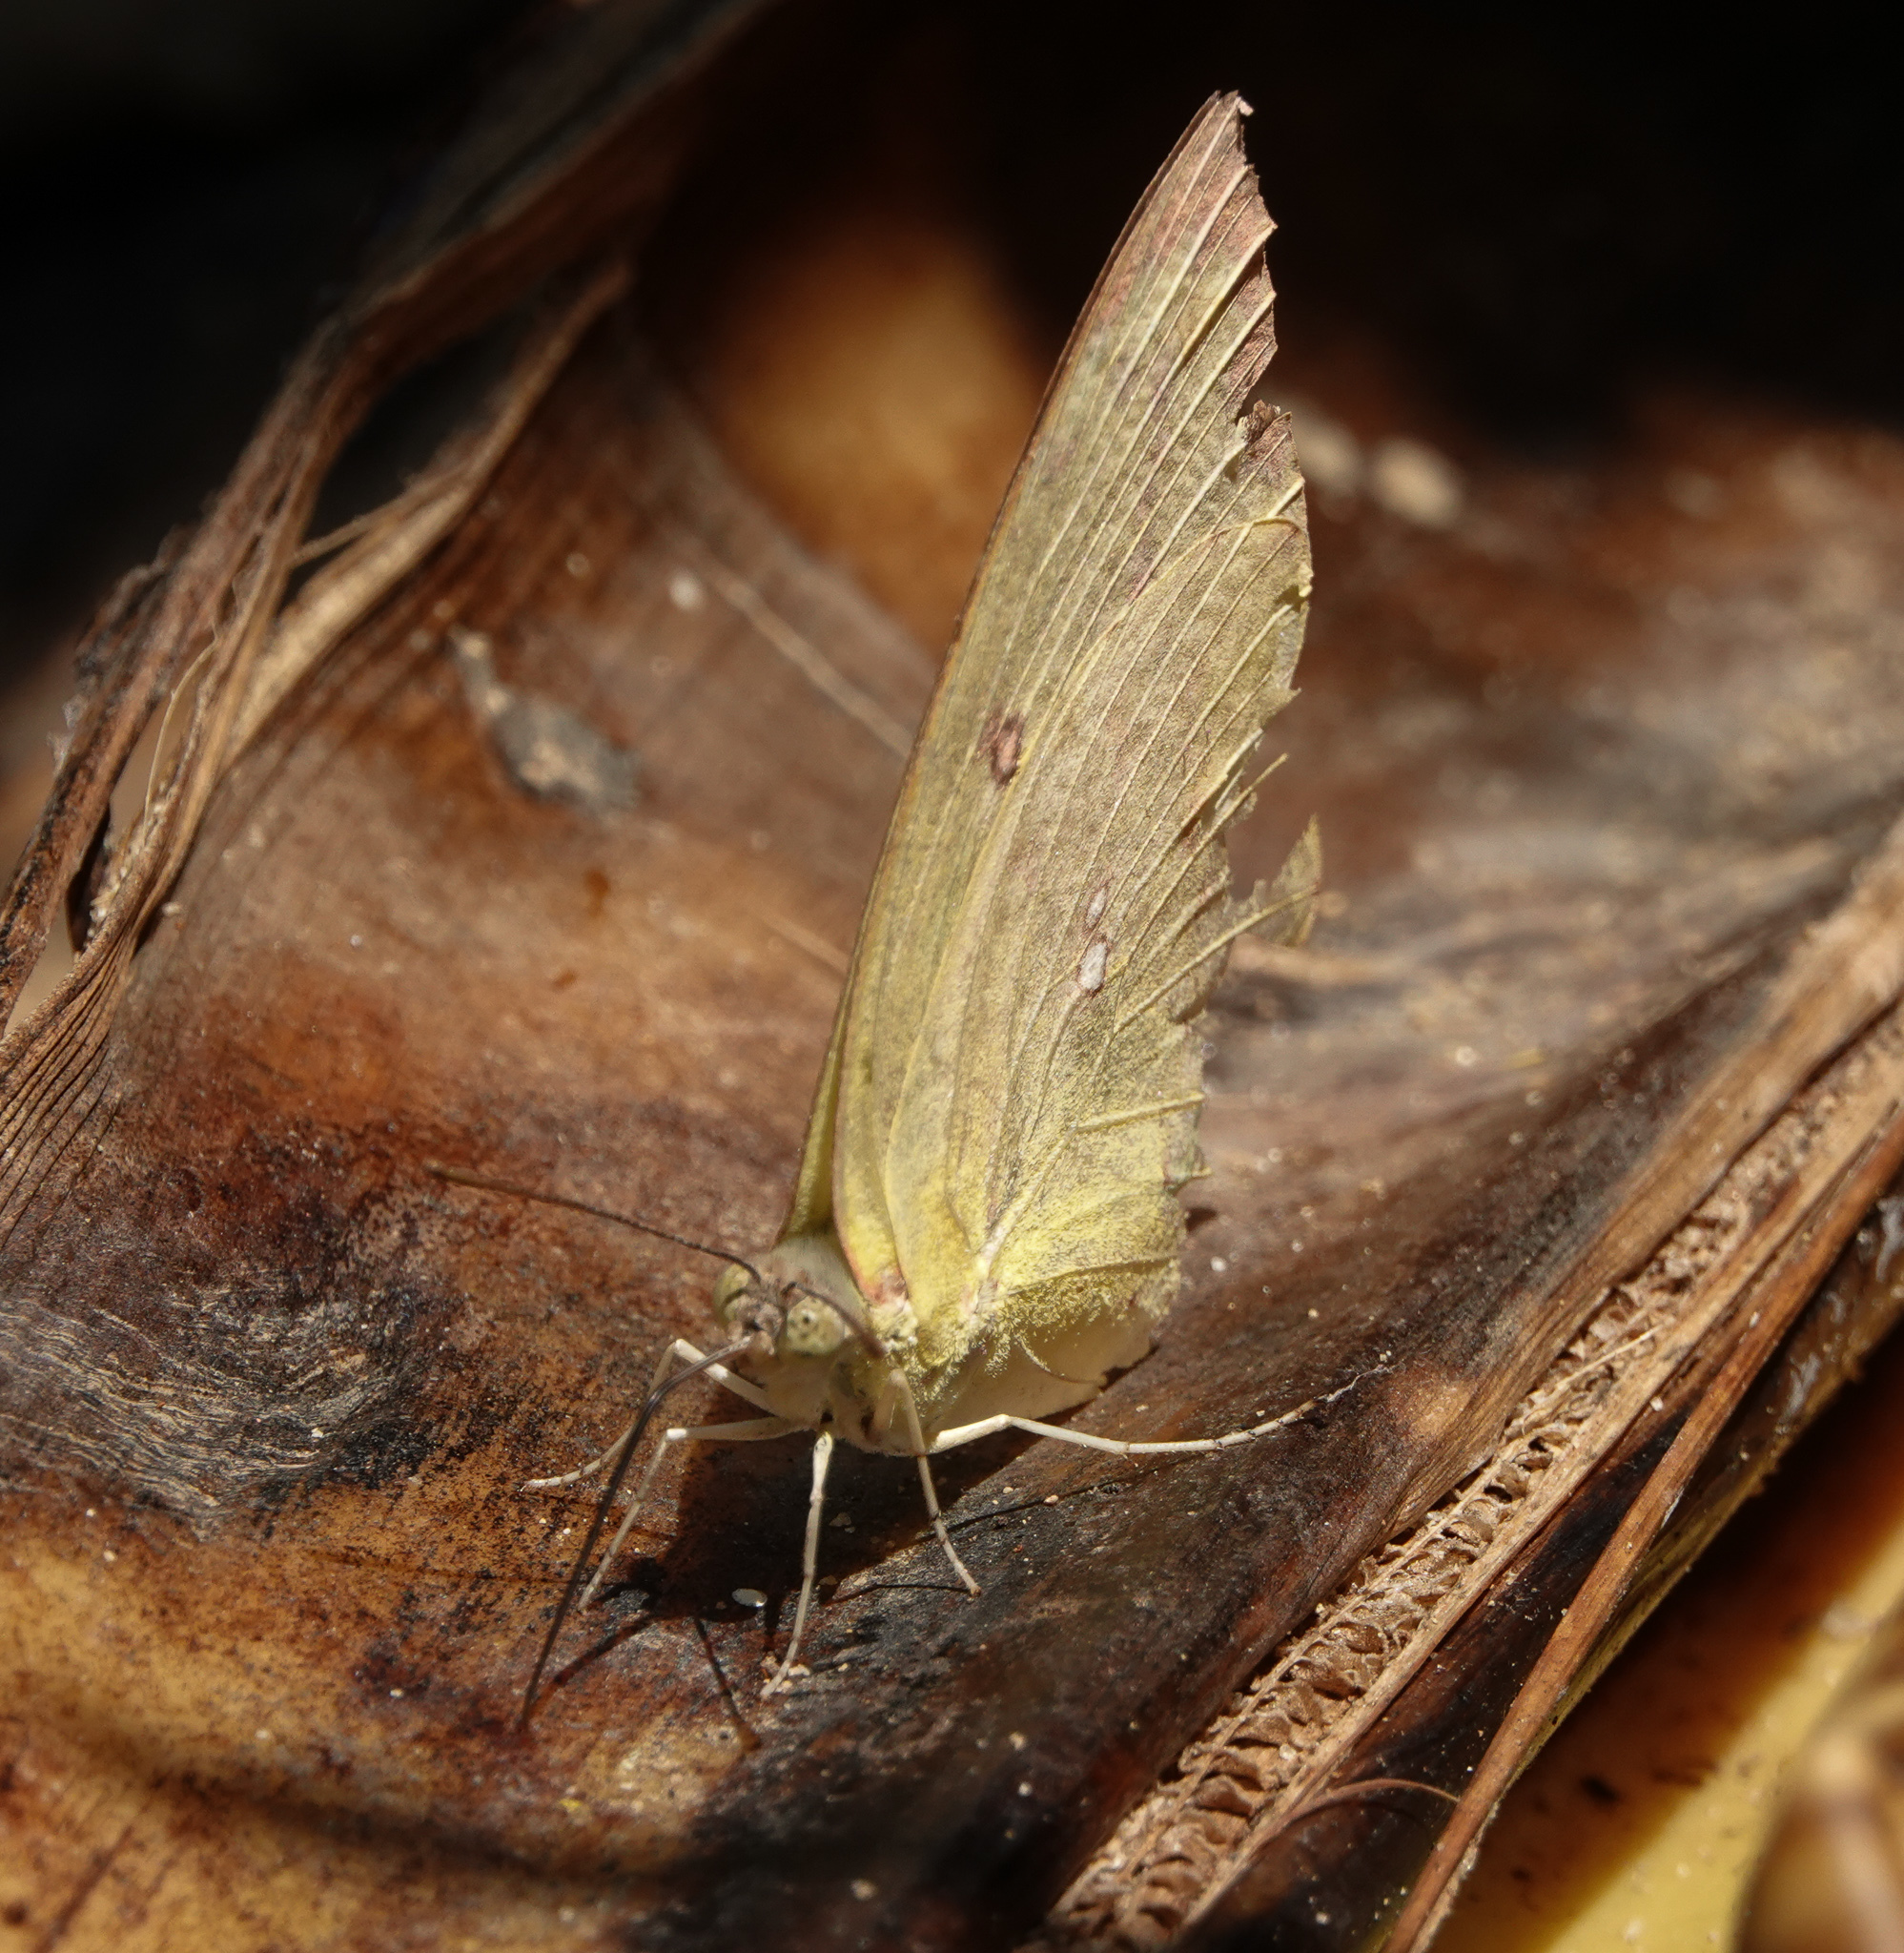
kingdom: Animalia
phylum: Arthropoda
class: Insecta
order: Lepidoptera
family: Pieridae
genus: Catopsilia
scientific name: Catopsilia pomona
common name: Common emigrant
